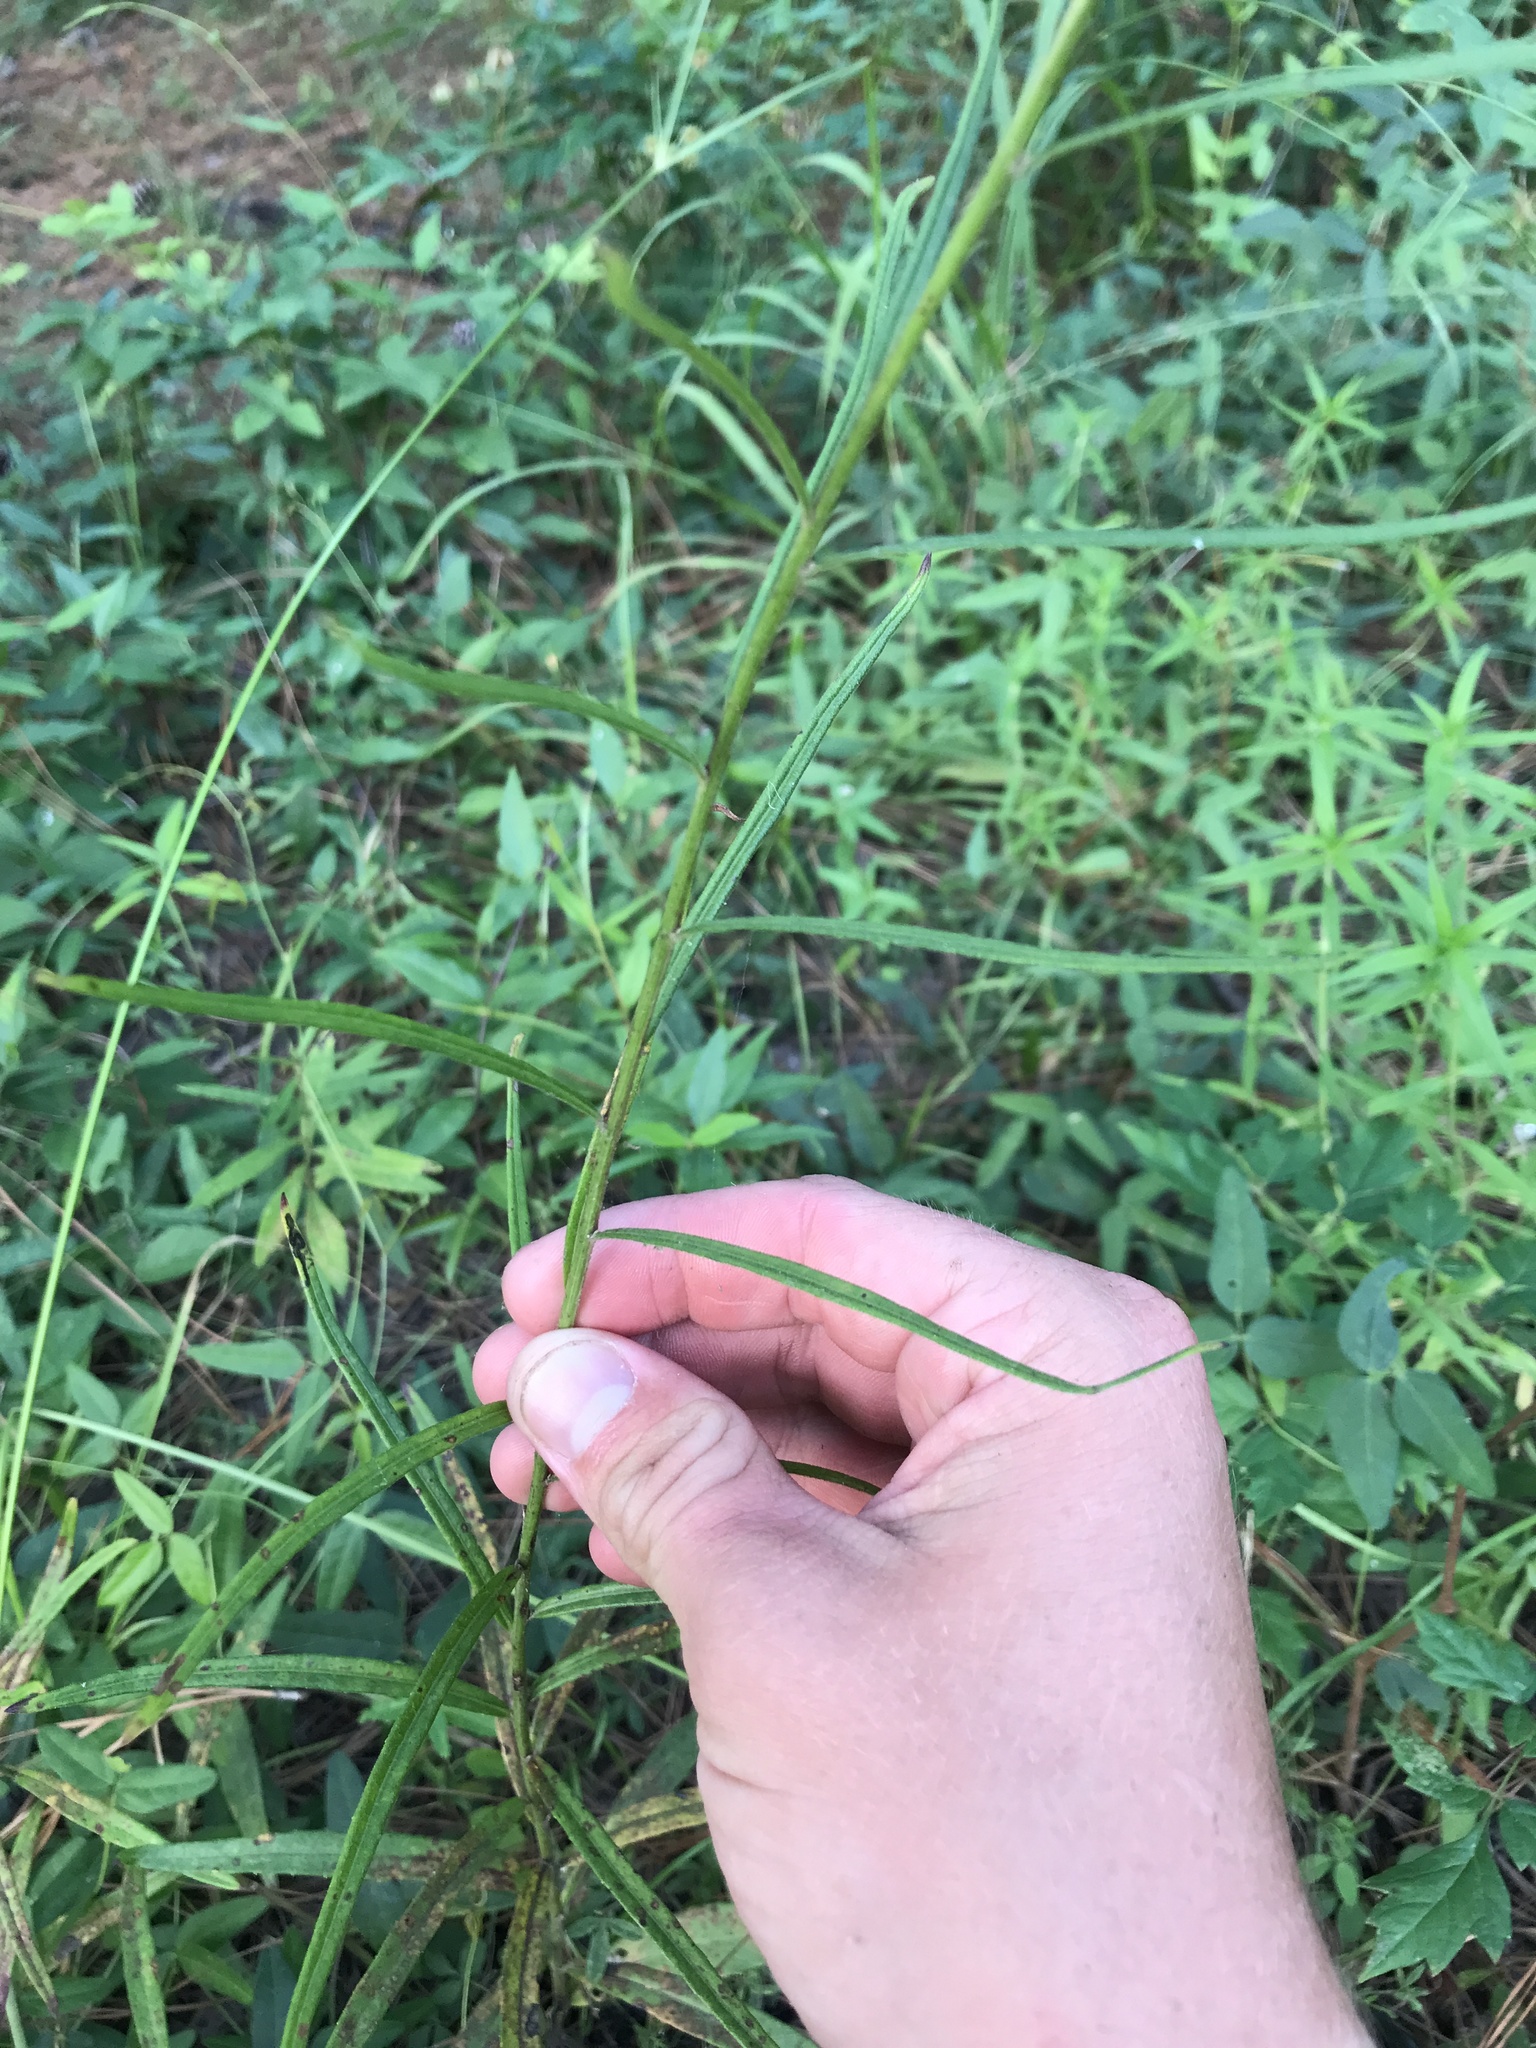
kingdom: Plantae
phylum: Tracheophyta
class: Magnoliopsida
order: Asterales
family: Asteraceae
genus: Vernonia
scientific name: Vernonia texana
